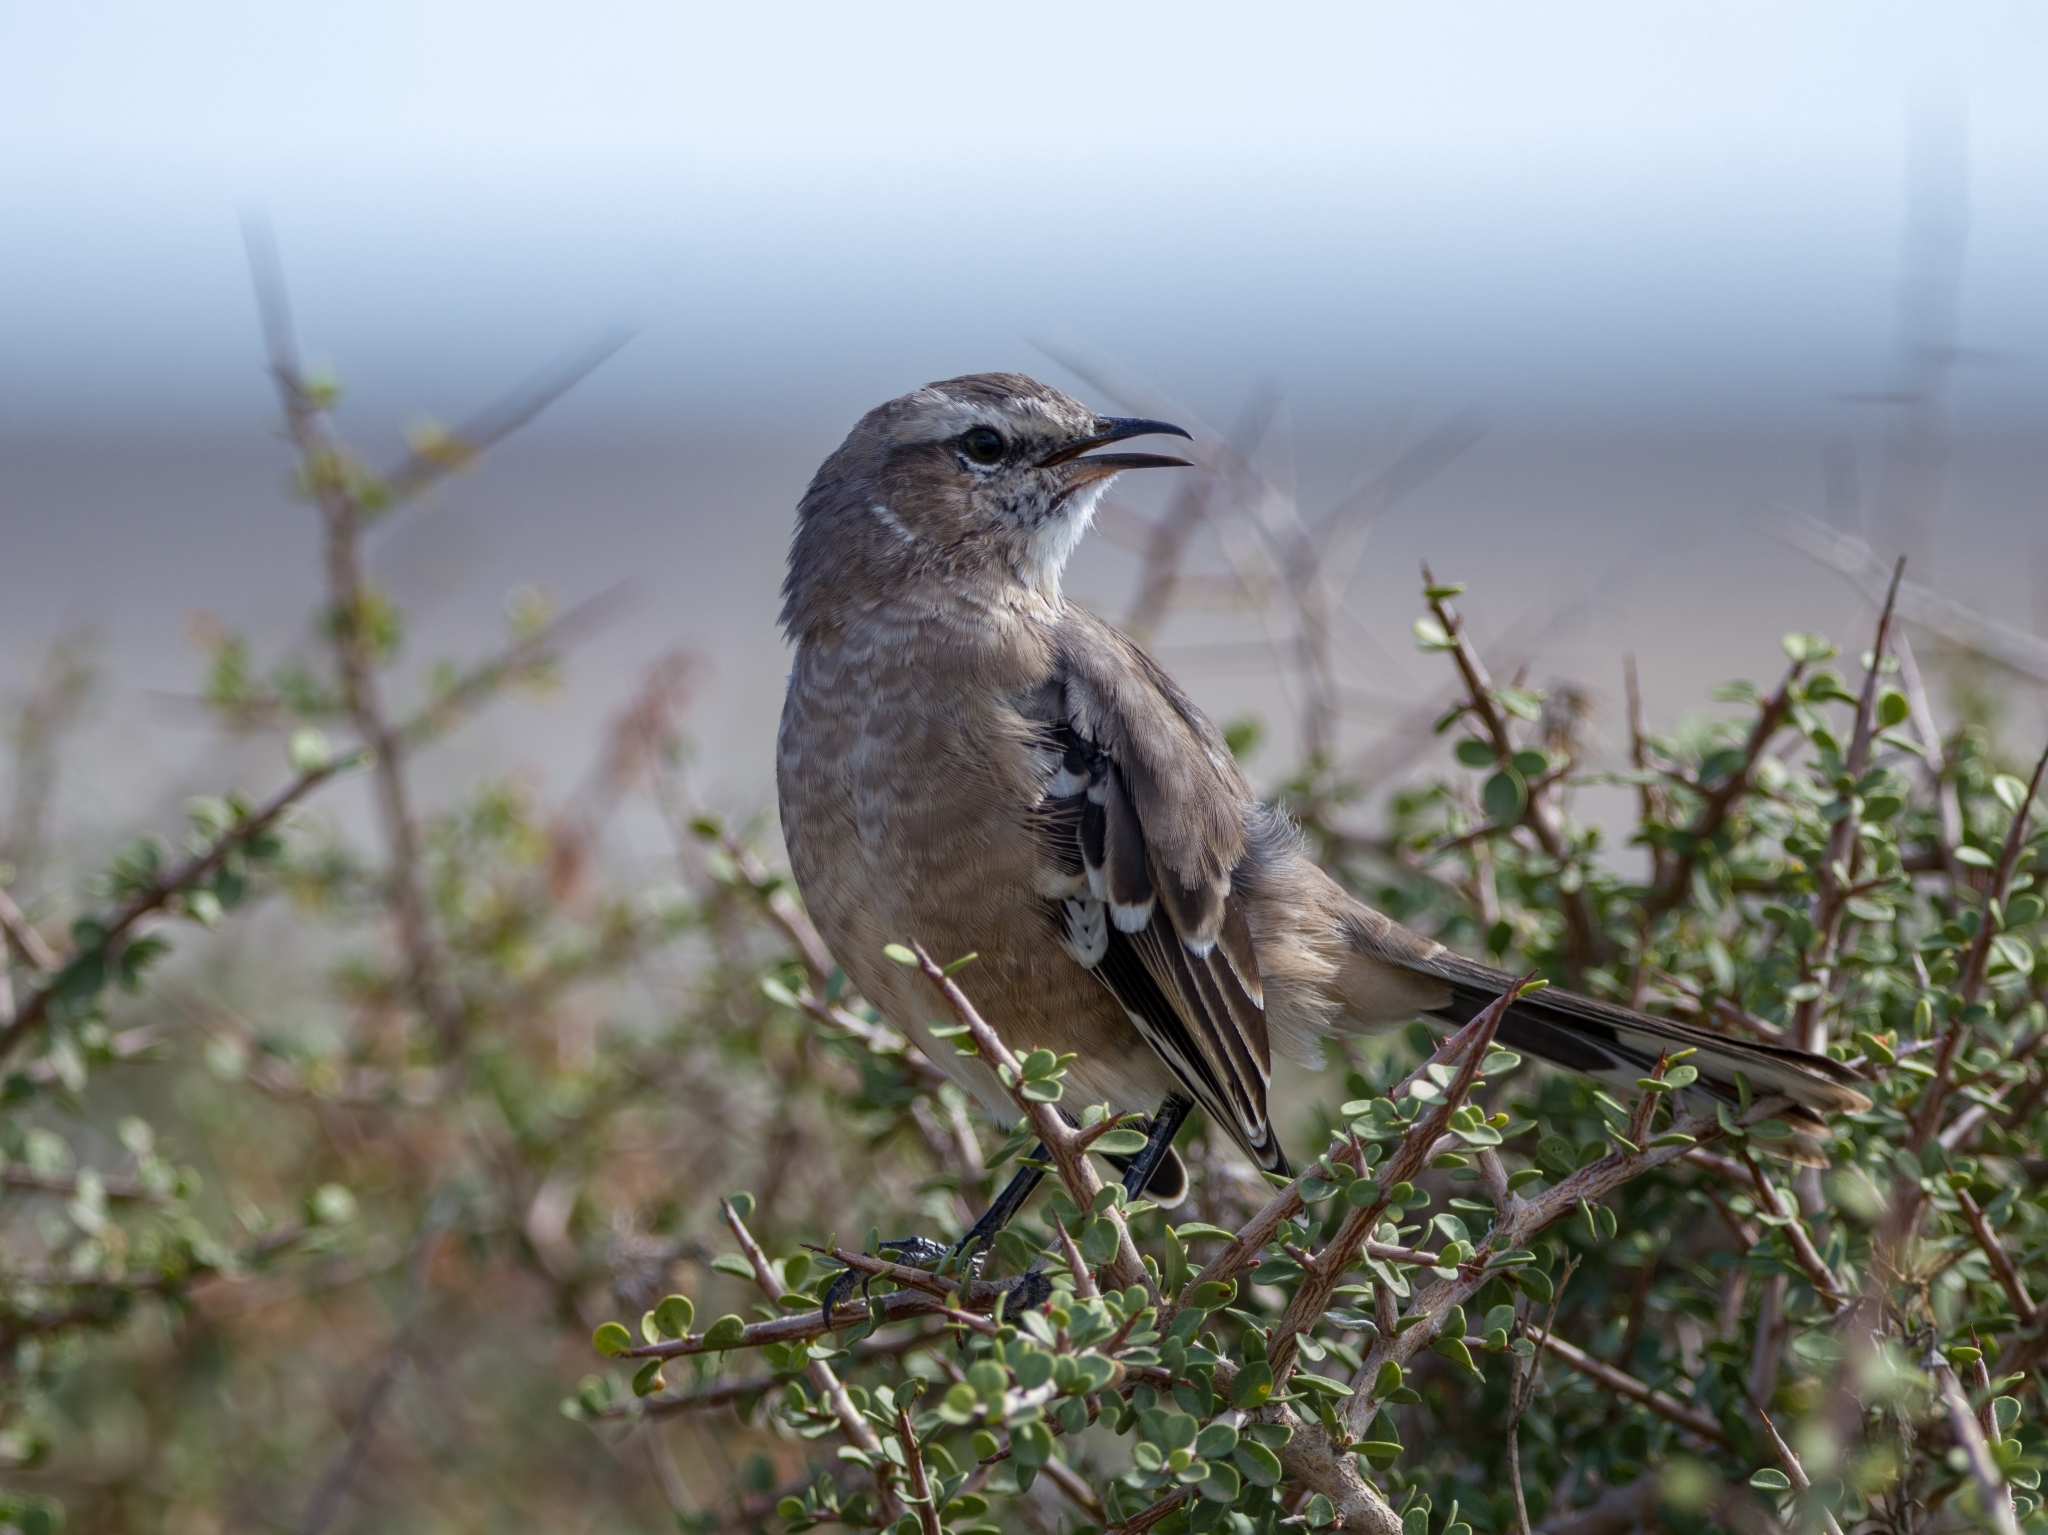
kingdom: Animalia
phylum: Chordata
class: Aves
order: Passeriformes
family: Mimidae
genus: Mimus
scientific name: Mimus patagonicus
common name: Patagonian mockingbird
